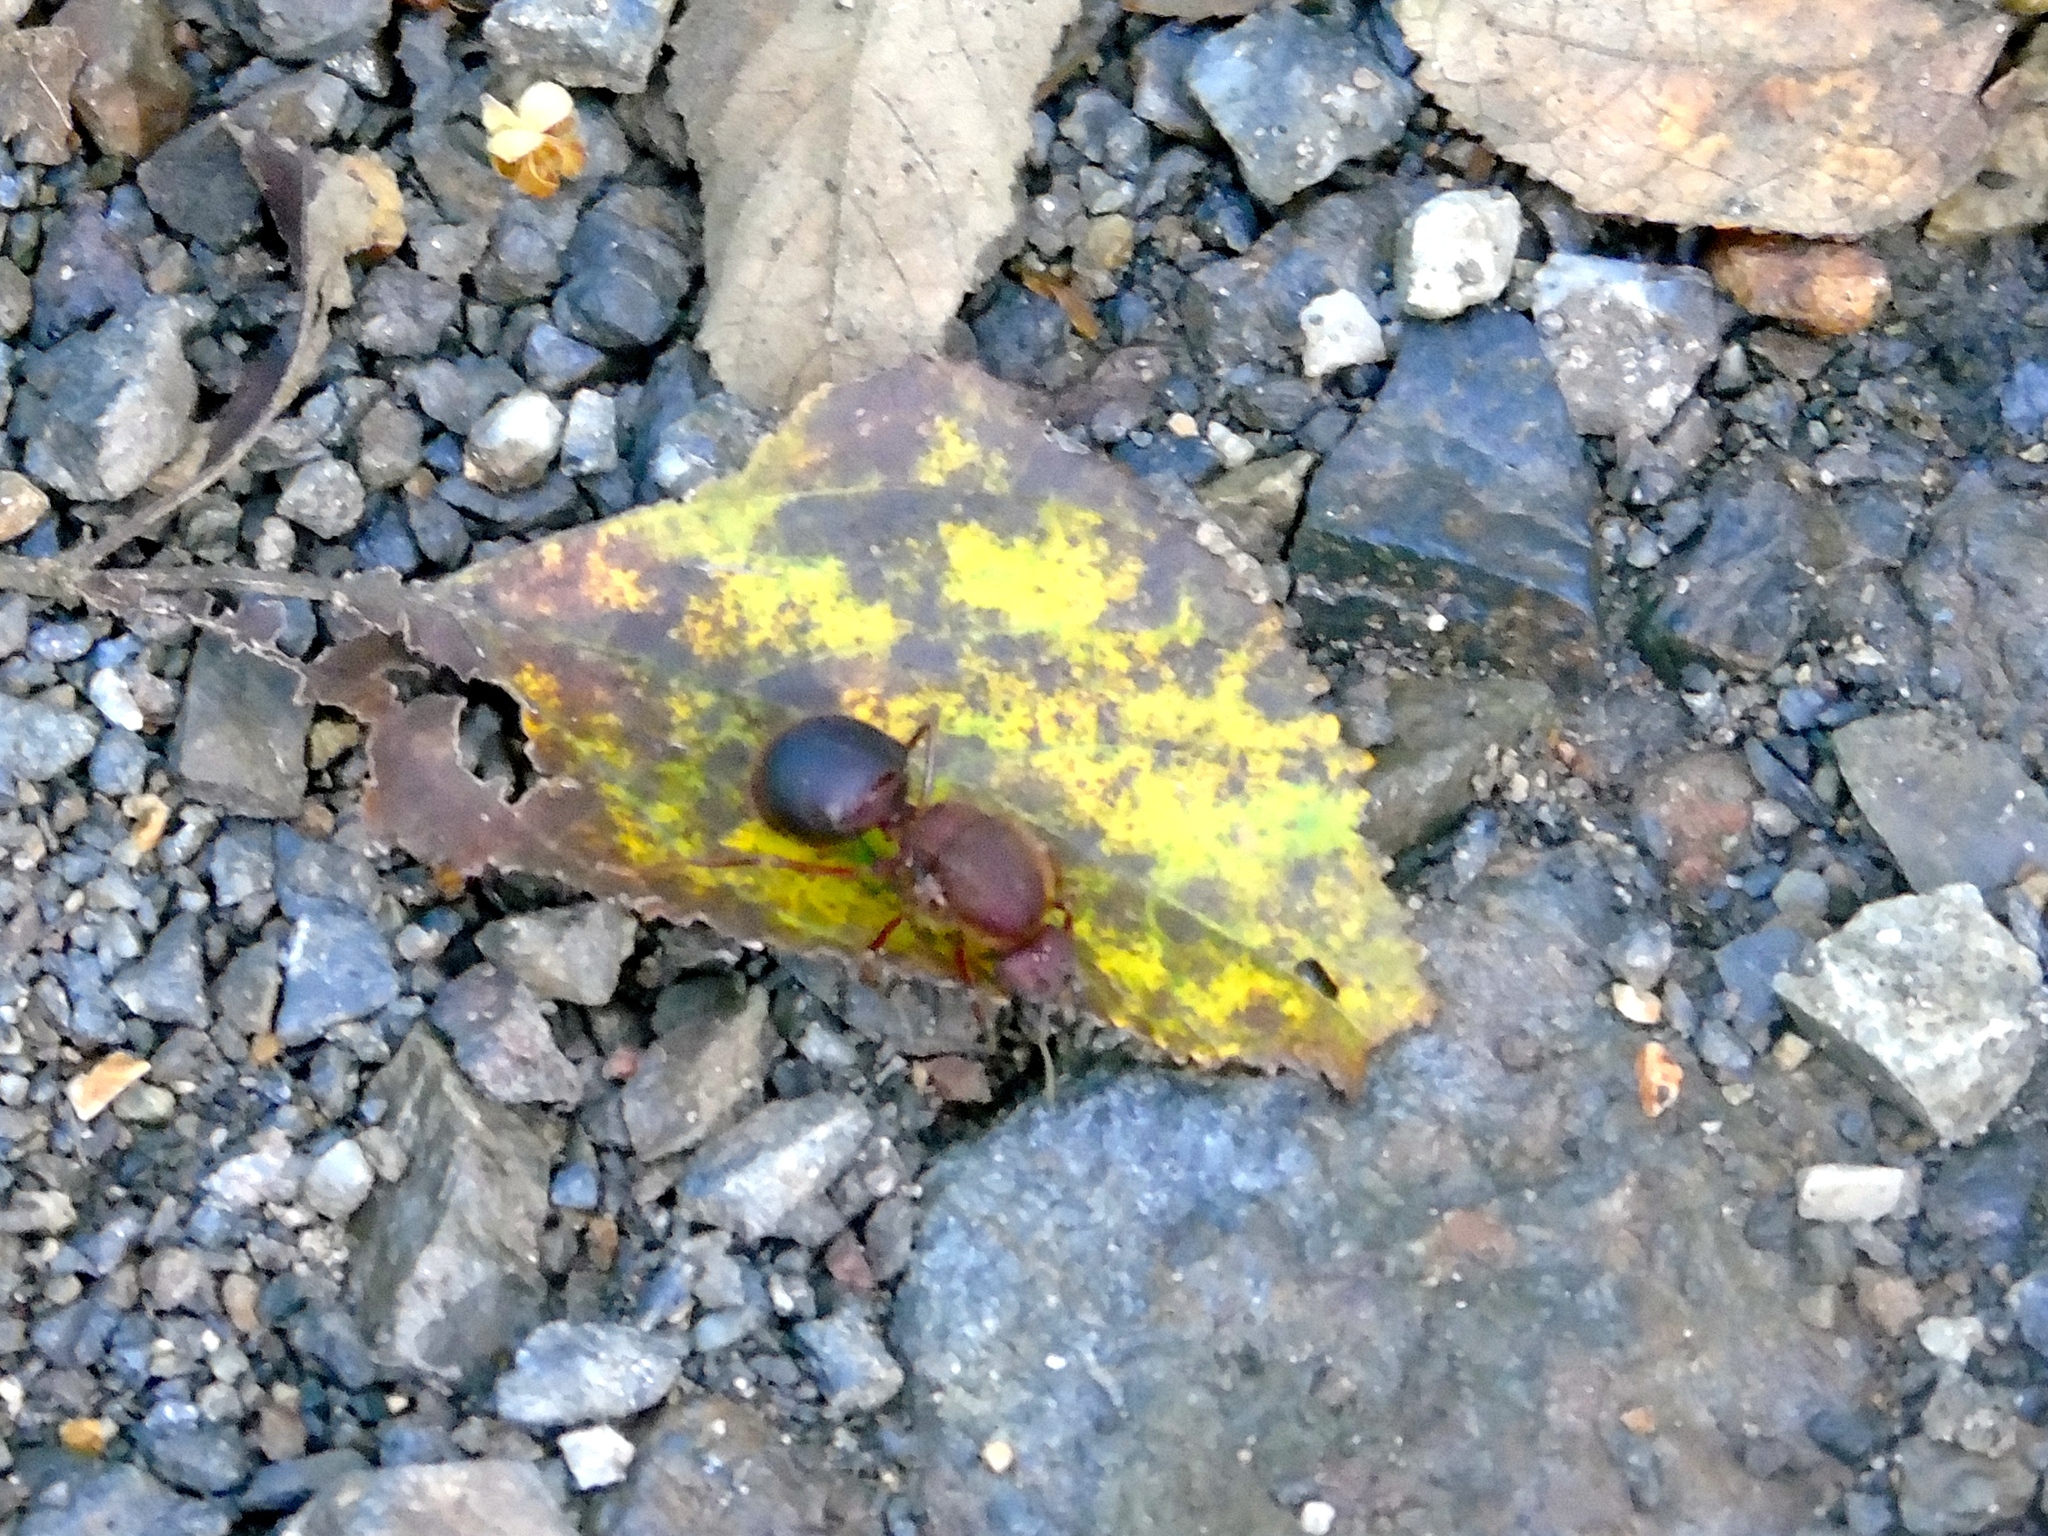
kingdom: Animalia
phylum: Arthropoda
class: Insecta
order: Hymenoptera
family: Formicidae
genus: Atta
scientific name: Atta mexicana
